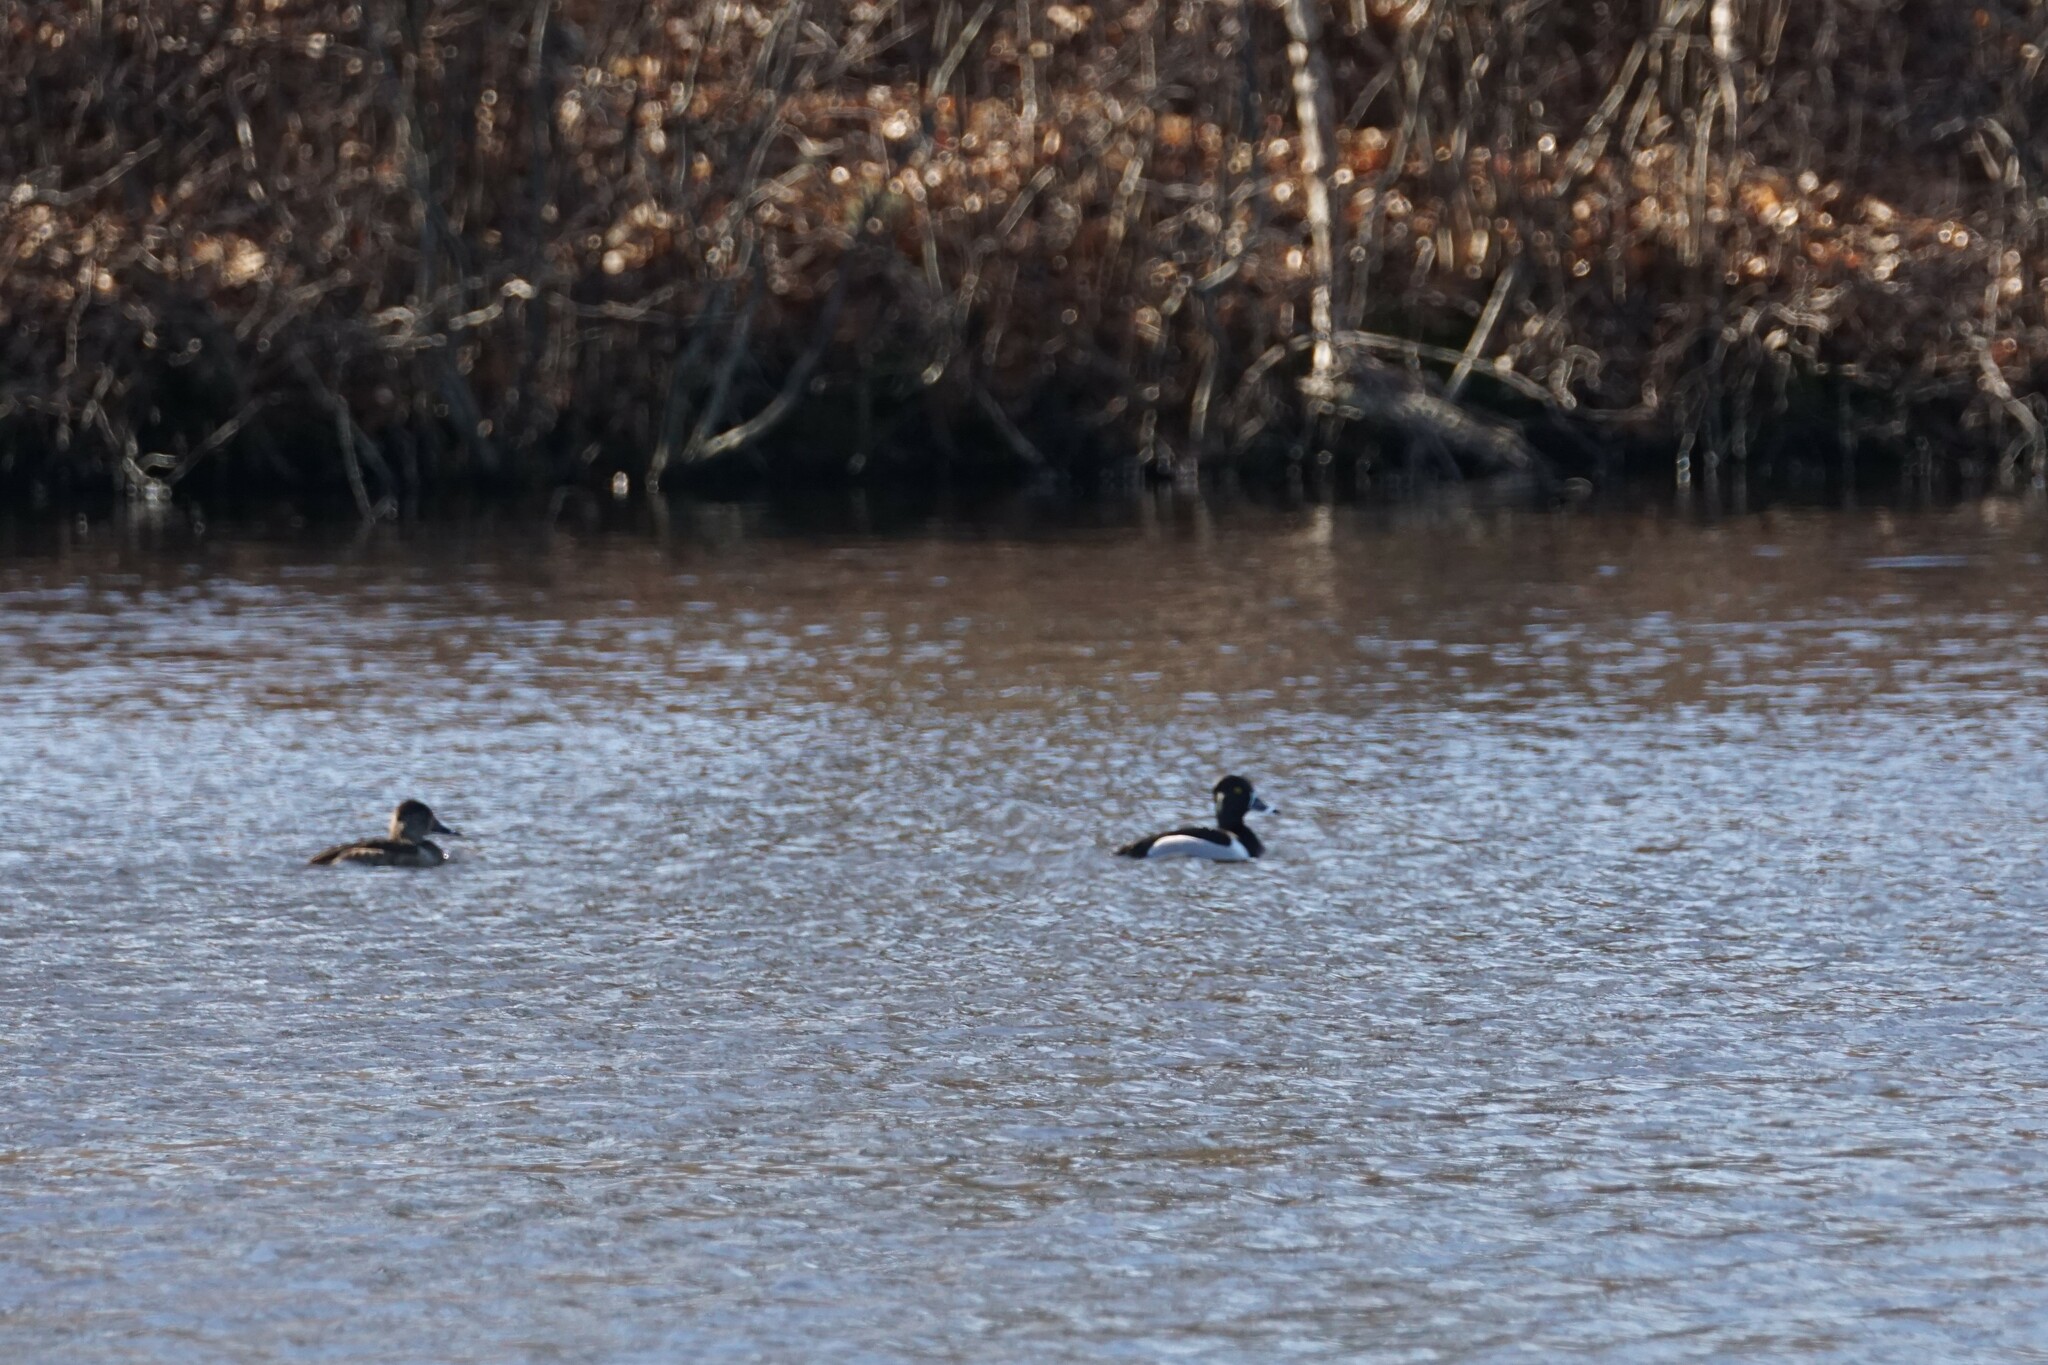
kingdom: Animalia
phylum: Chordata
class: Aves
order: Anseriformes
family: Anatidae
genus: Aythya
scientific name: Aythya collaris
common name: Ring-necked duck
